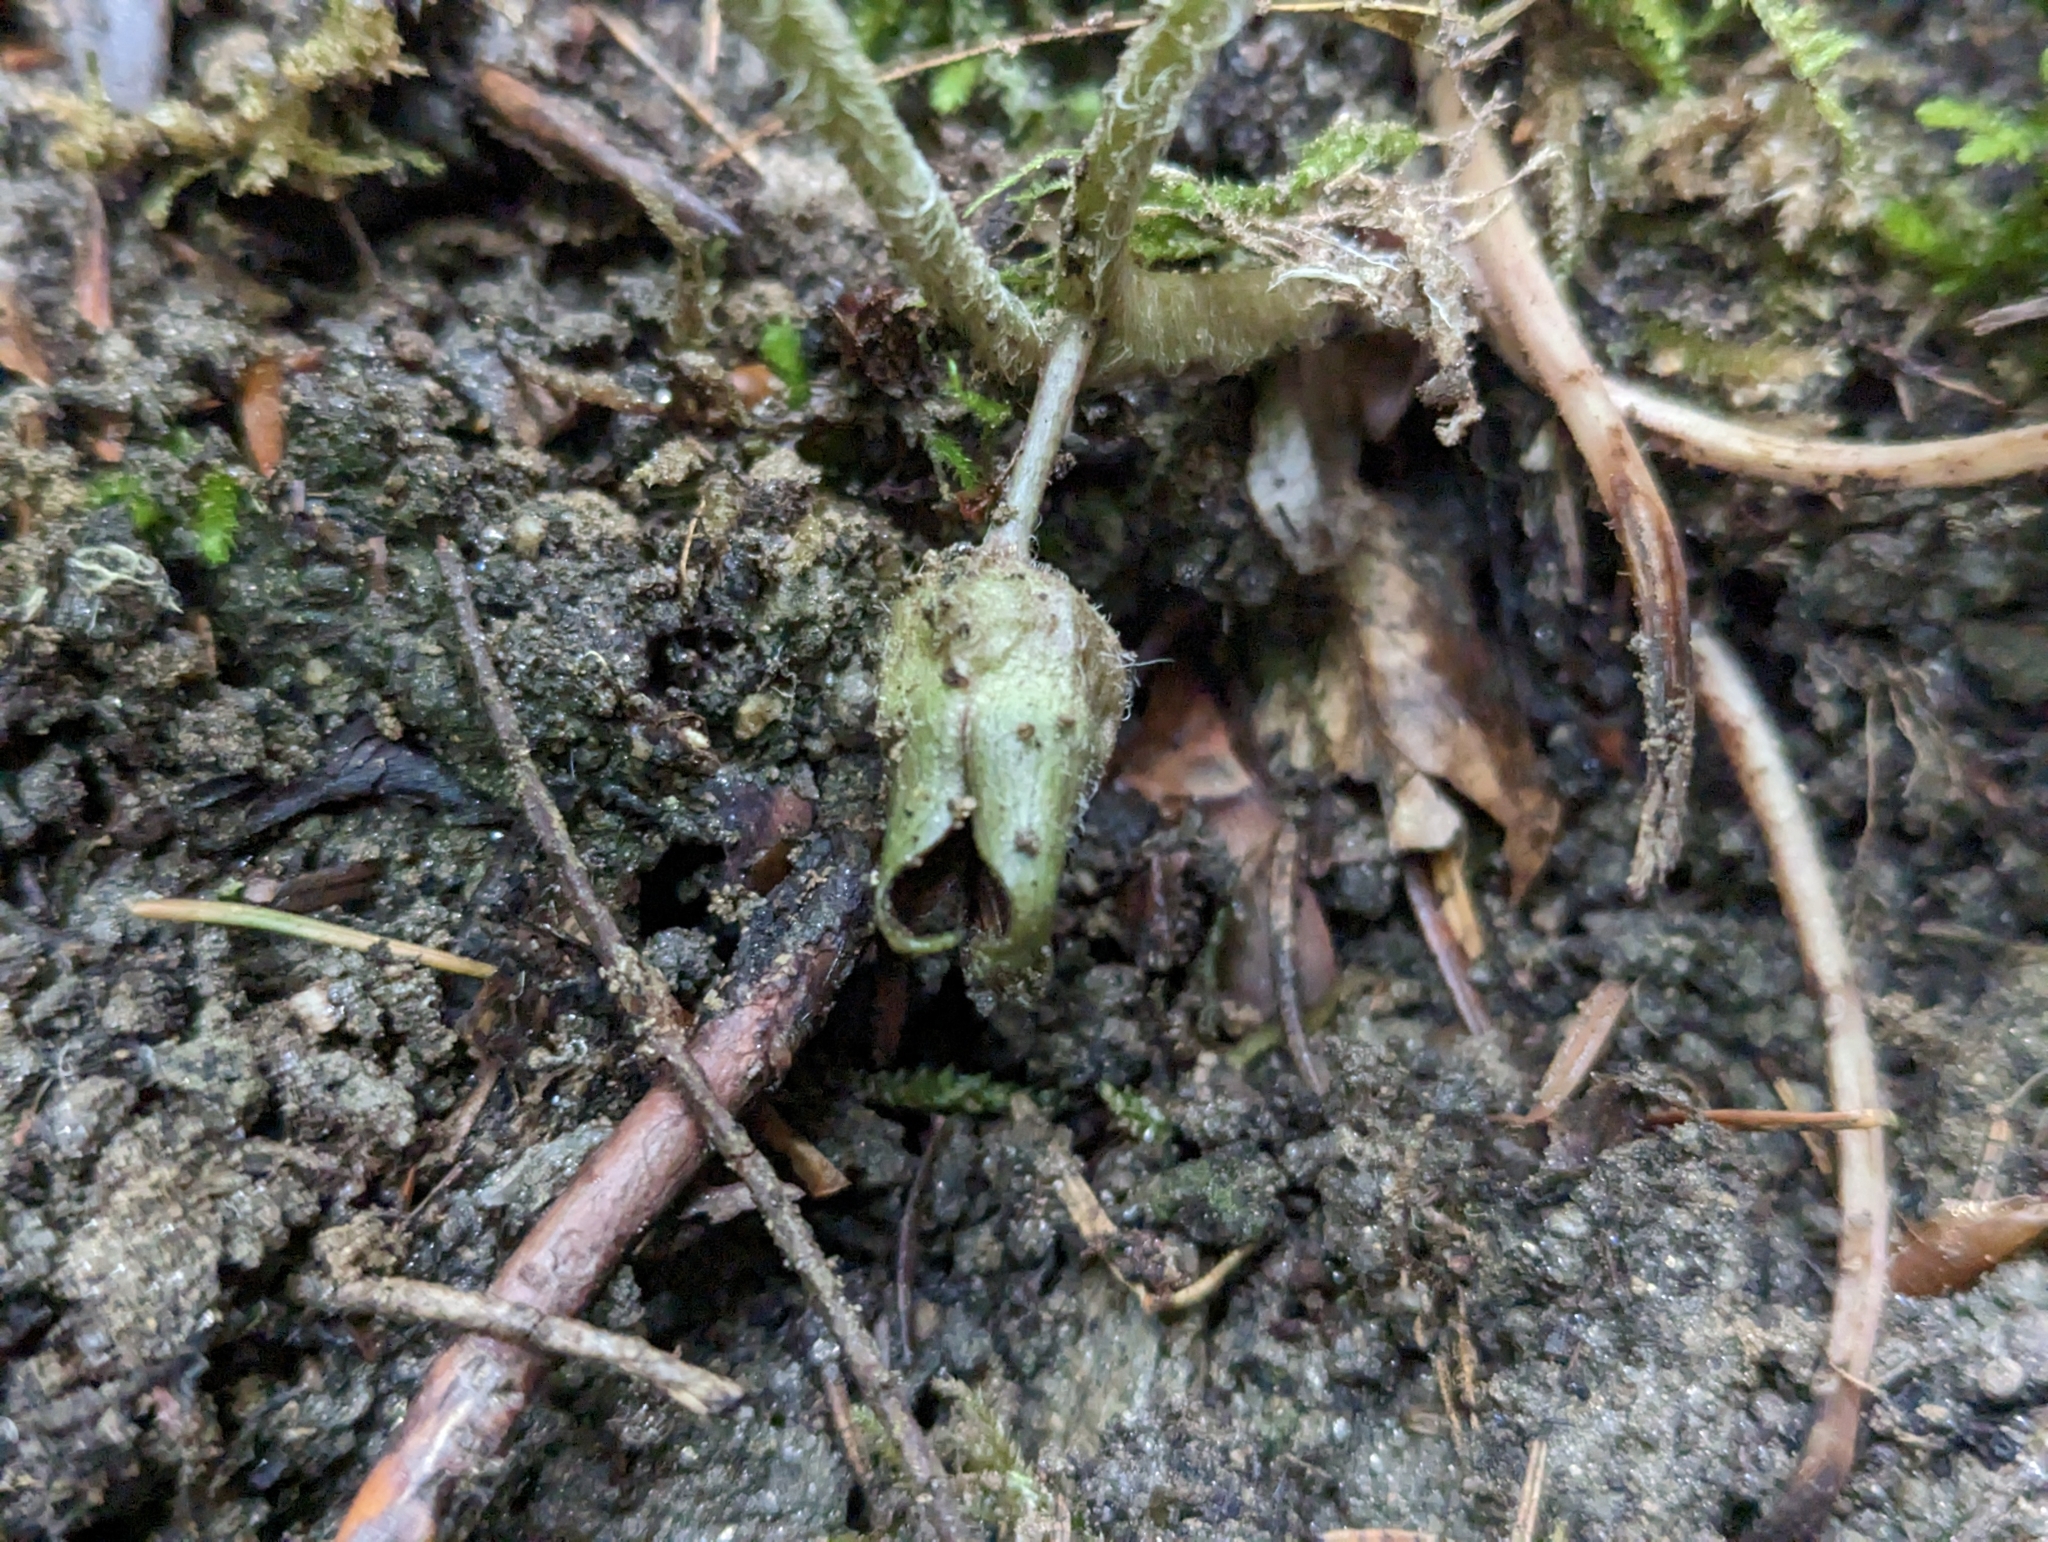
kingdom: Plantae
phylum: Tracheophyta
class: Magnoliopsida
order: Piperales
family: Aristolochiaceae
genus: Asarum
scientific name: Asarum europaeum
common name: Asarabacca
